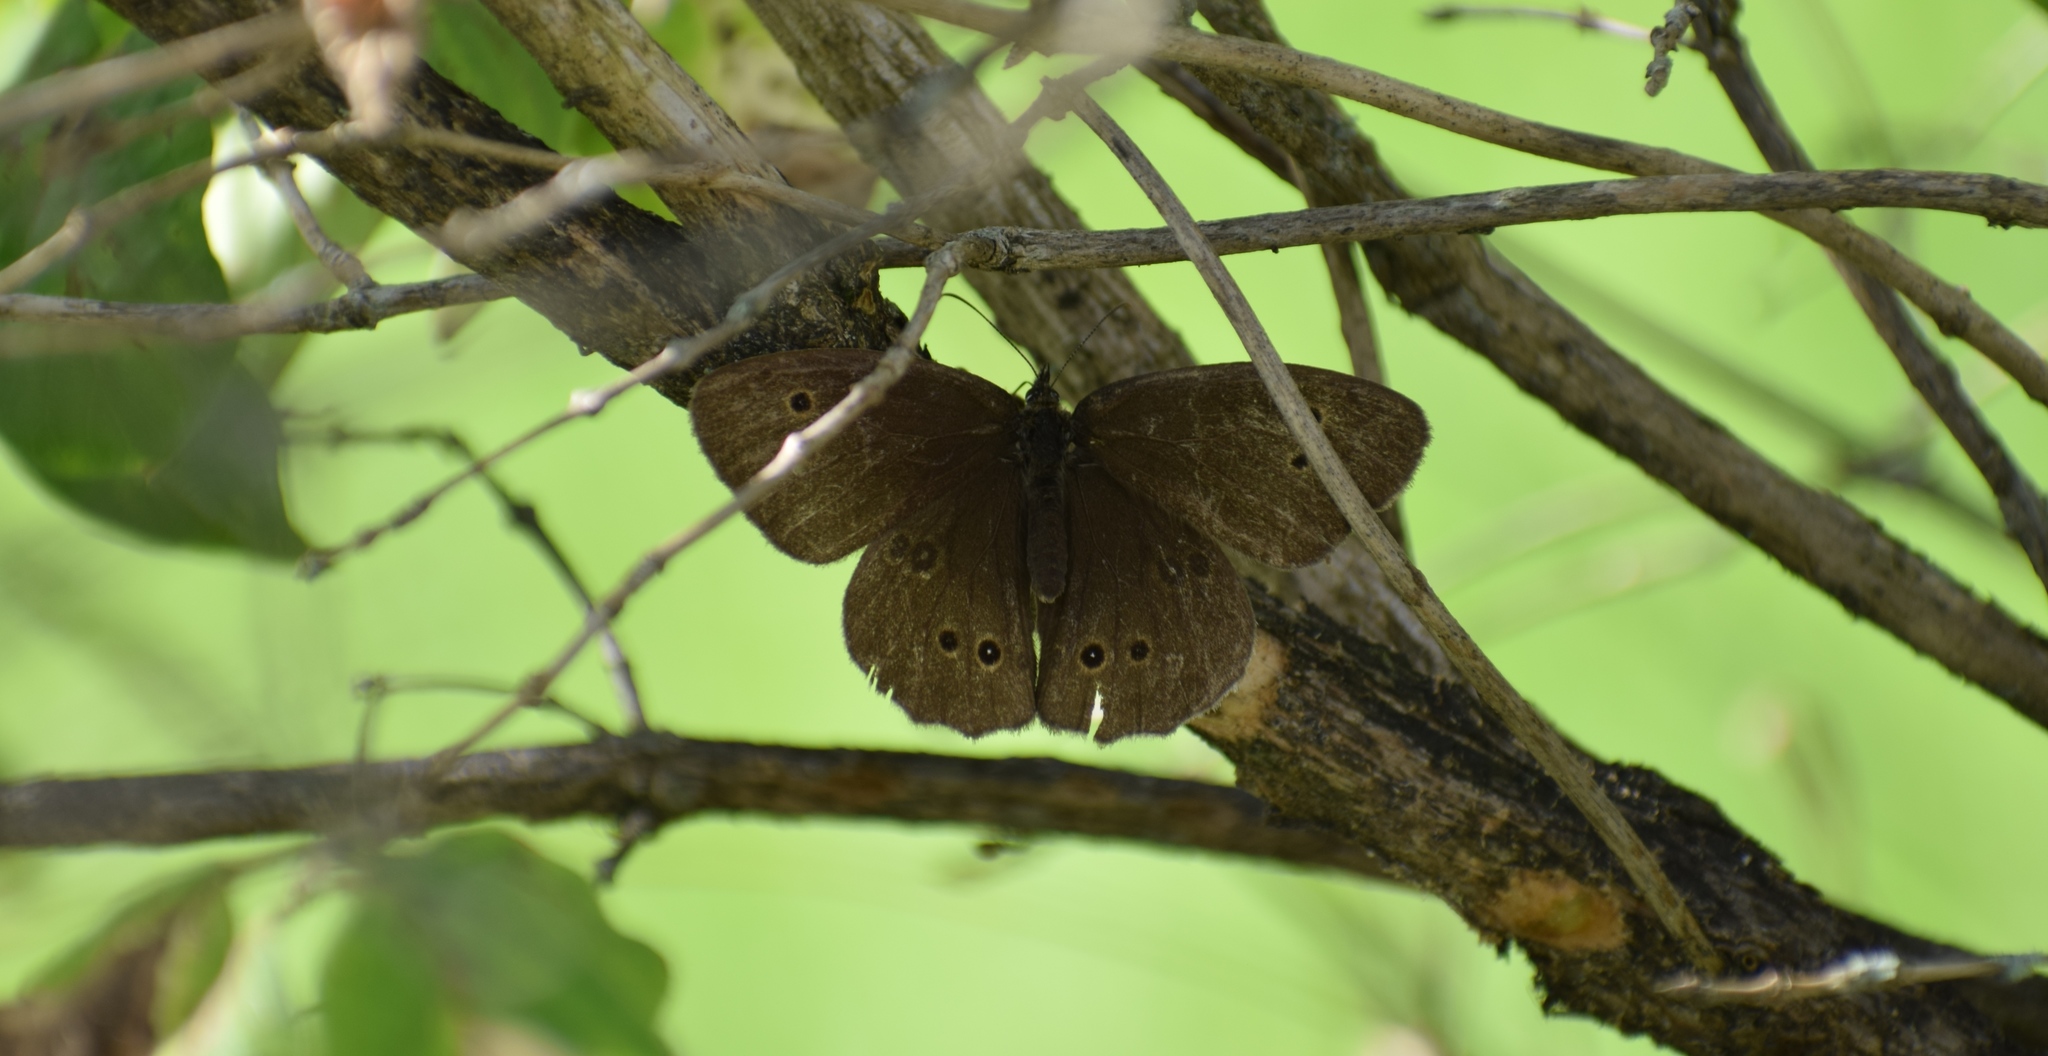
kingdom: Animalia
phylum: Arthropoda
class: Insecta
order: Lepidoptera
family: Nymphalidae
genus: Aphantopus
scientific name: Aphantopus hyperantus
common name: Ringlet
